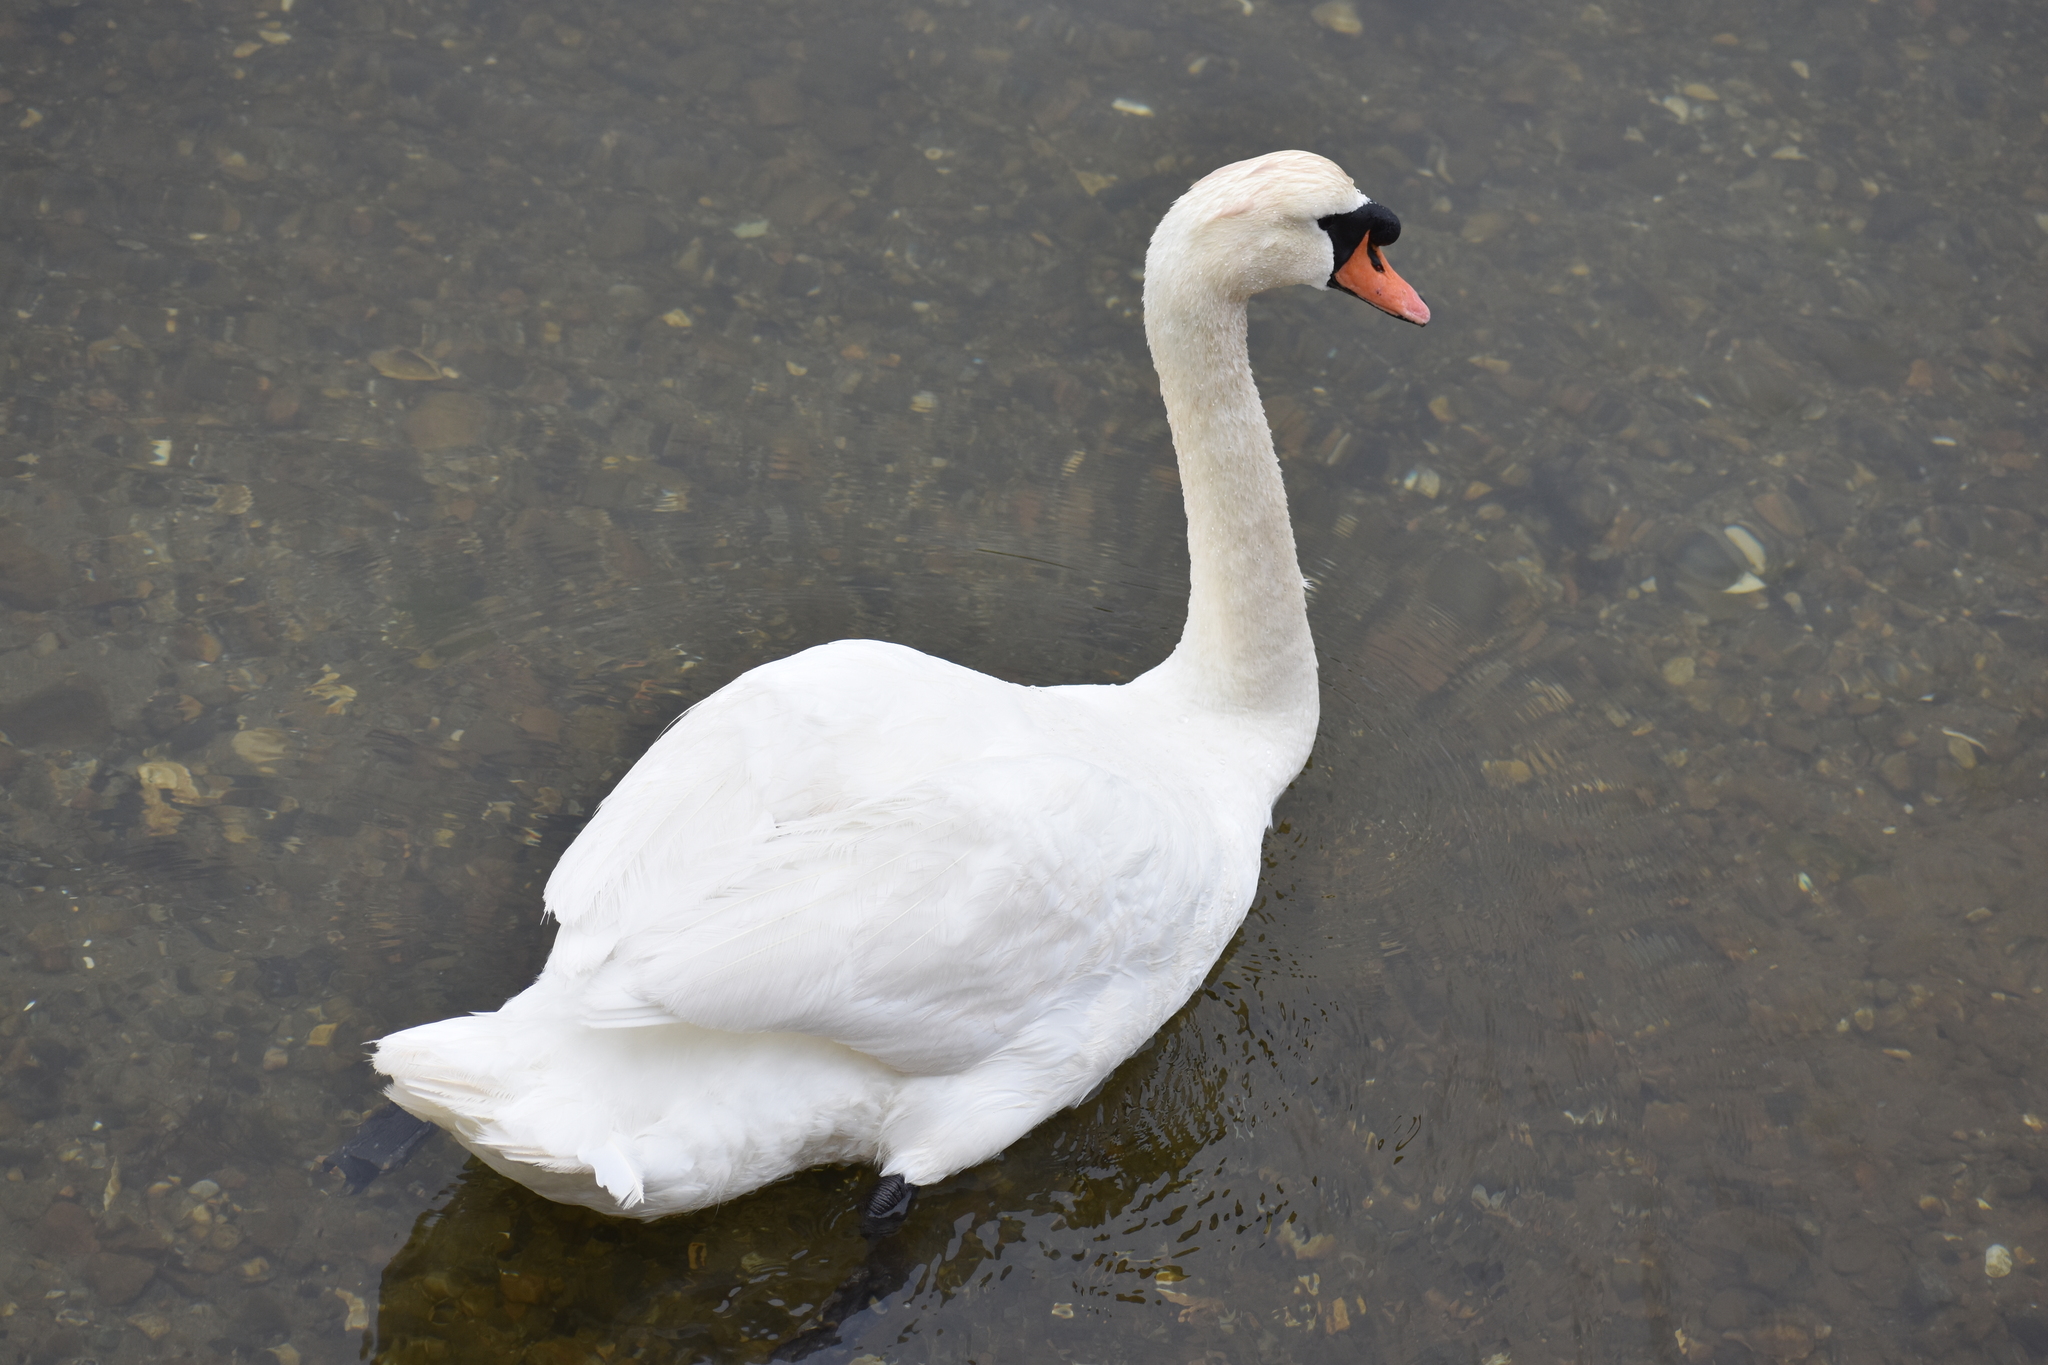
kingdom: Animalia
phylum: Chordata
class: Aves
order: Anseriformes
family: Anatidae
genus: Cygnus
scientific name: Cygnus olor
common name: Mute swan
